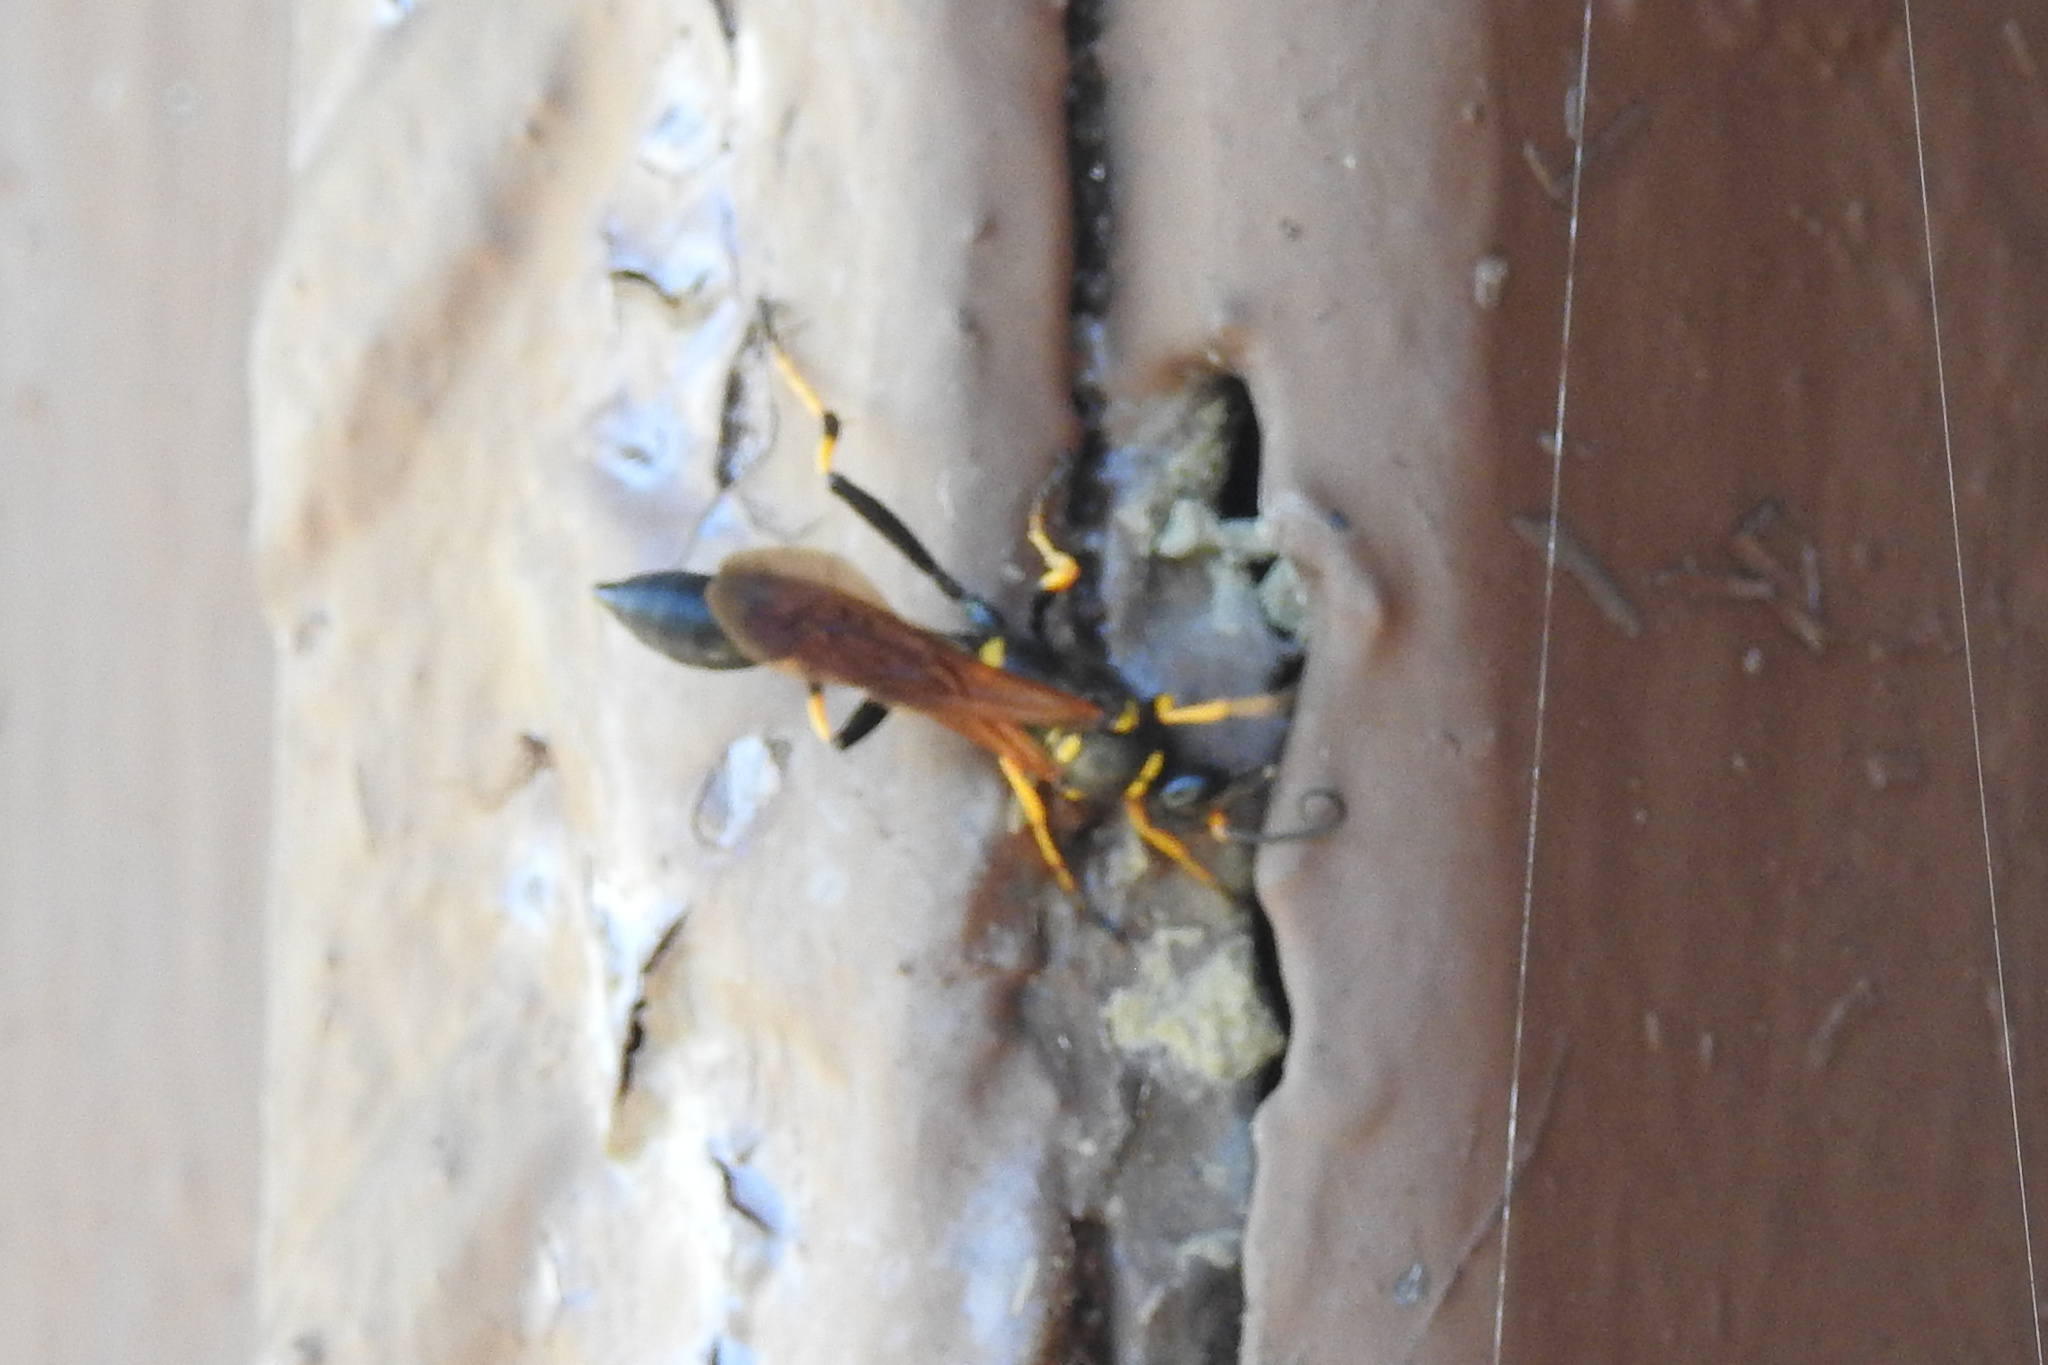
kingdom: Animalia
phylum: Arthropoda
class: Insecta
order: Hymenoptera
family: Sphecidae
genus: Sceliphron
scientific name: Sceliphron caementarium
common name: Mud dauber
